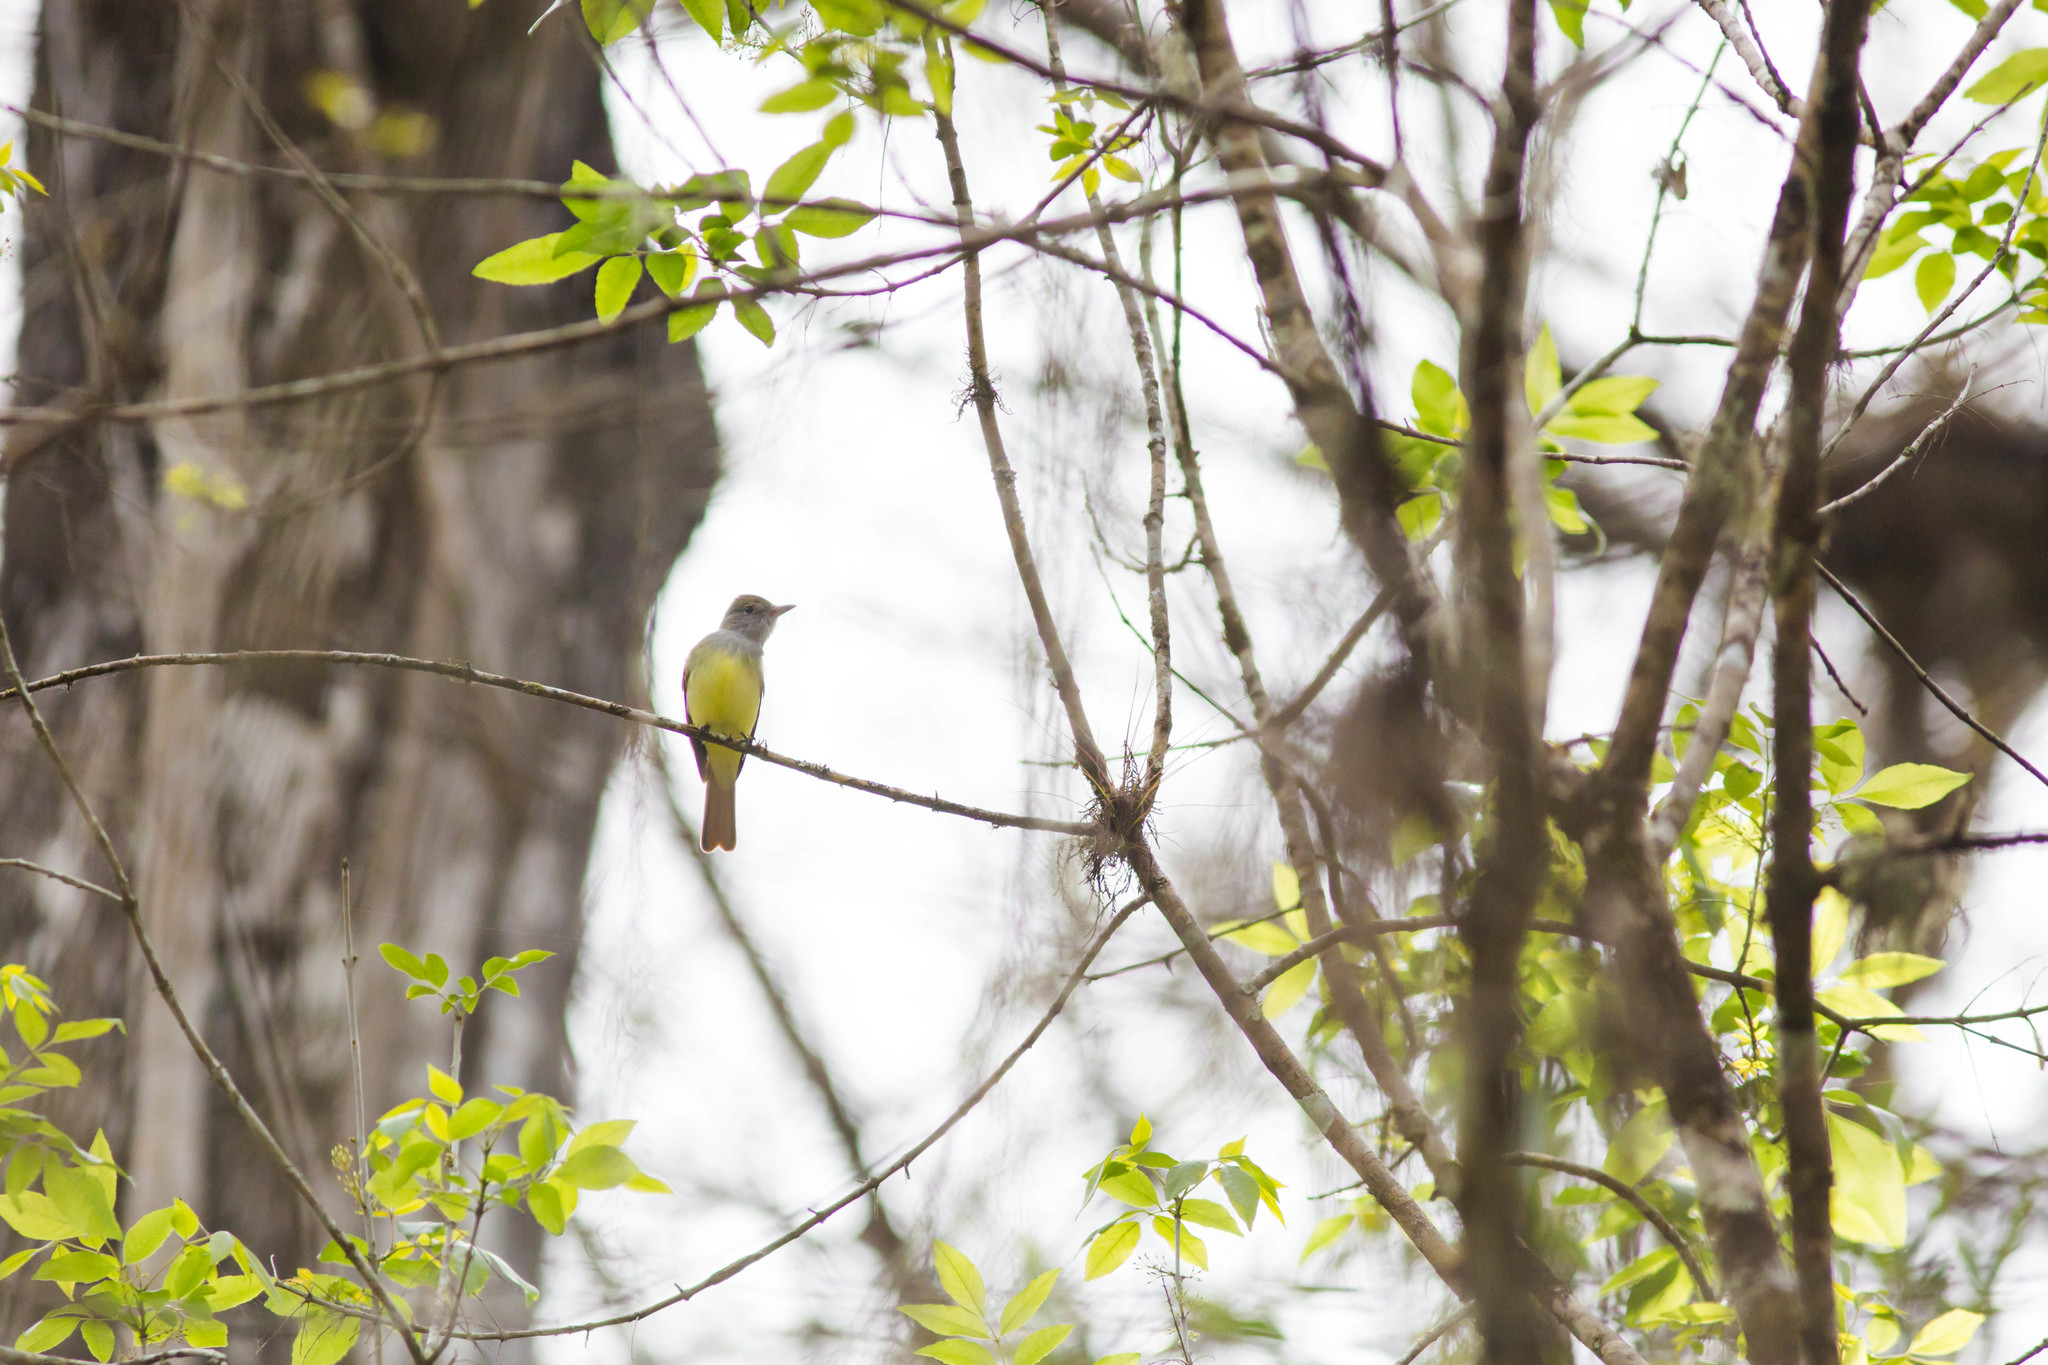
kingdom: Animalia
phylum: Chordata
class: Aves
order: Passeriformes
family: Tyrannidae
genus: Myiarchus
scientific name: Myiarchus crinitus
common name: Great crested flycatcher
